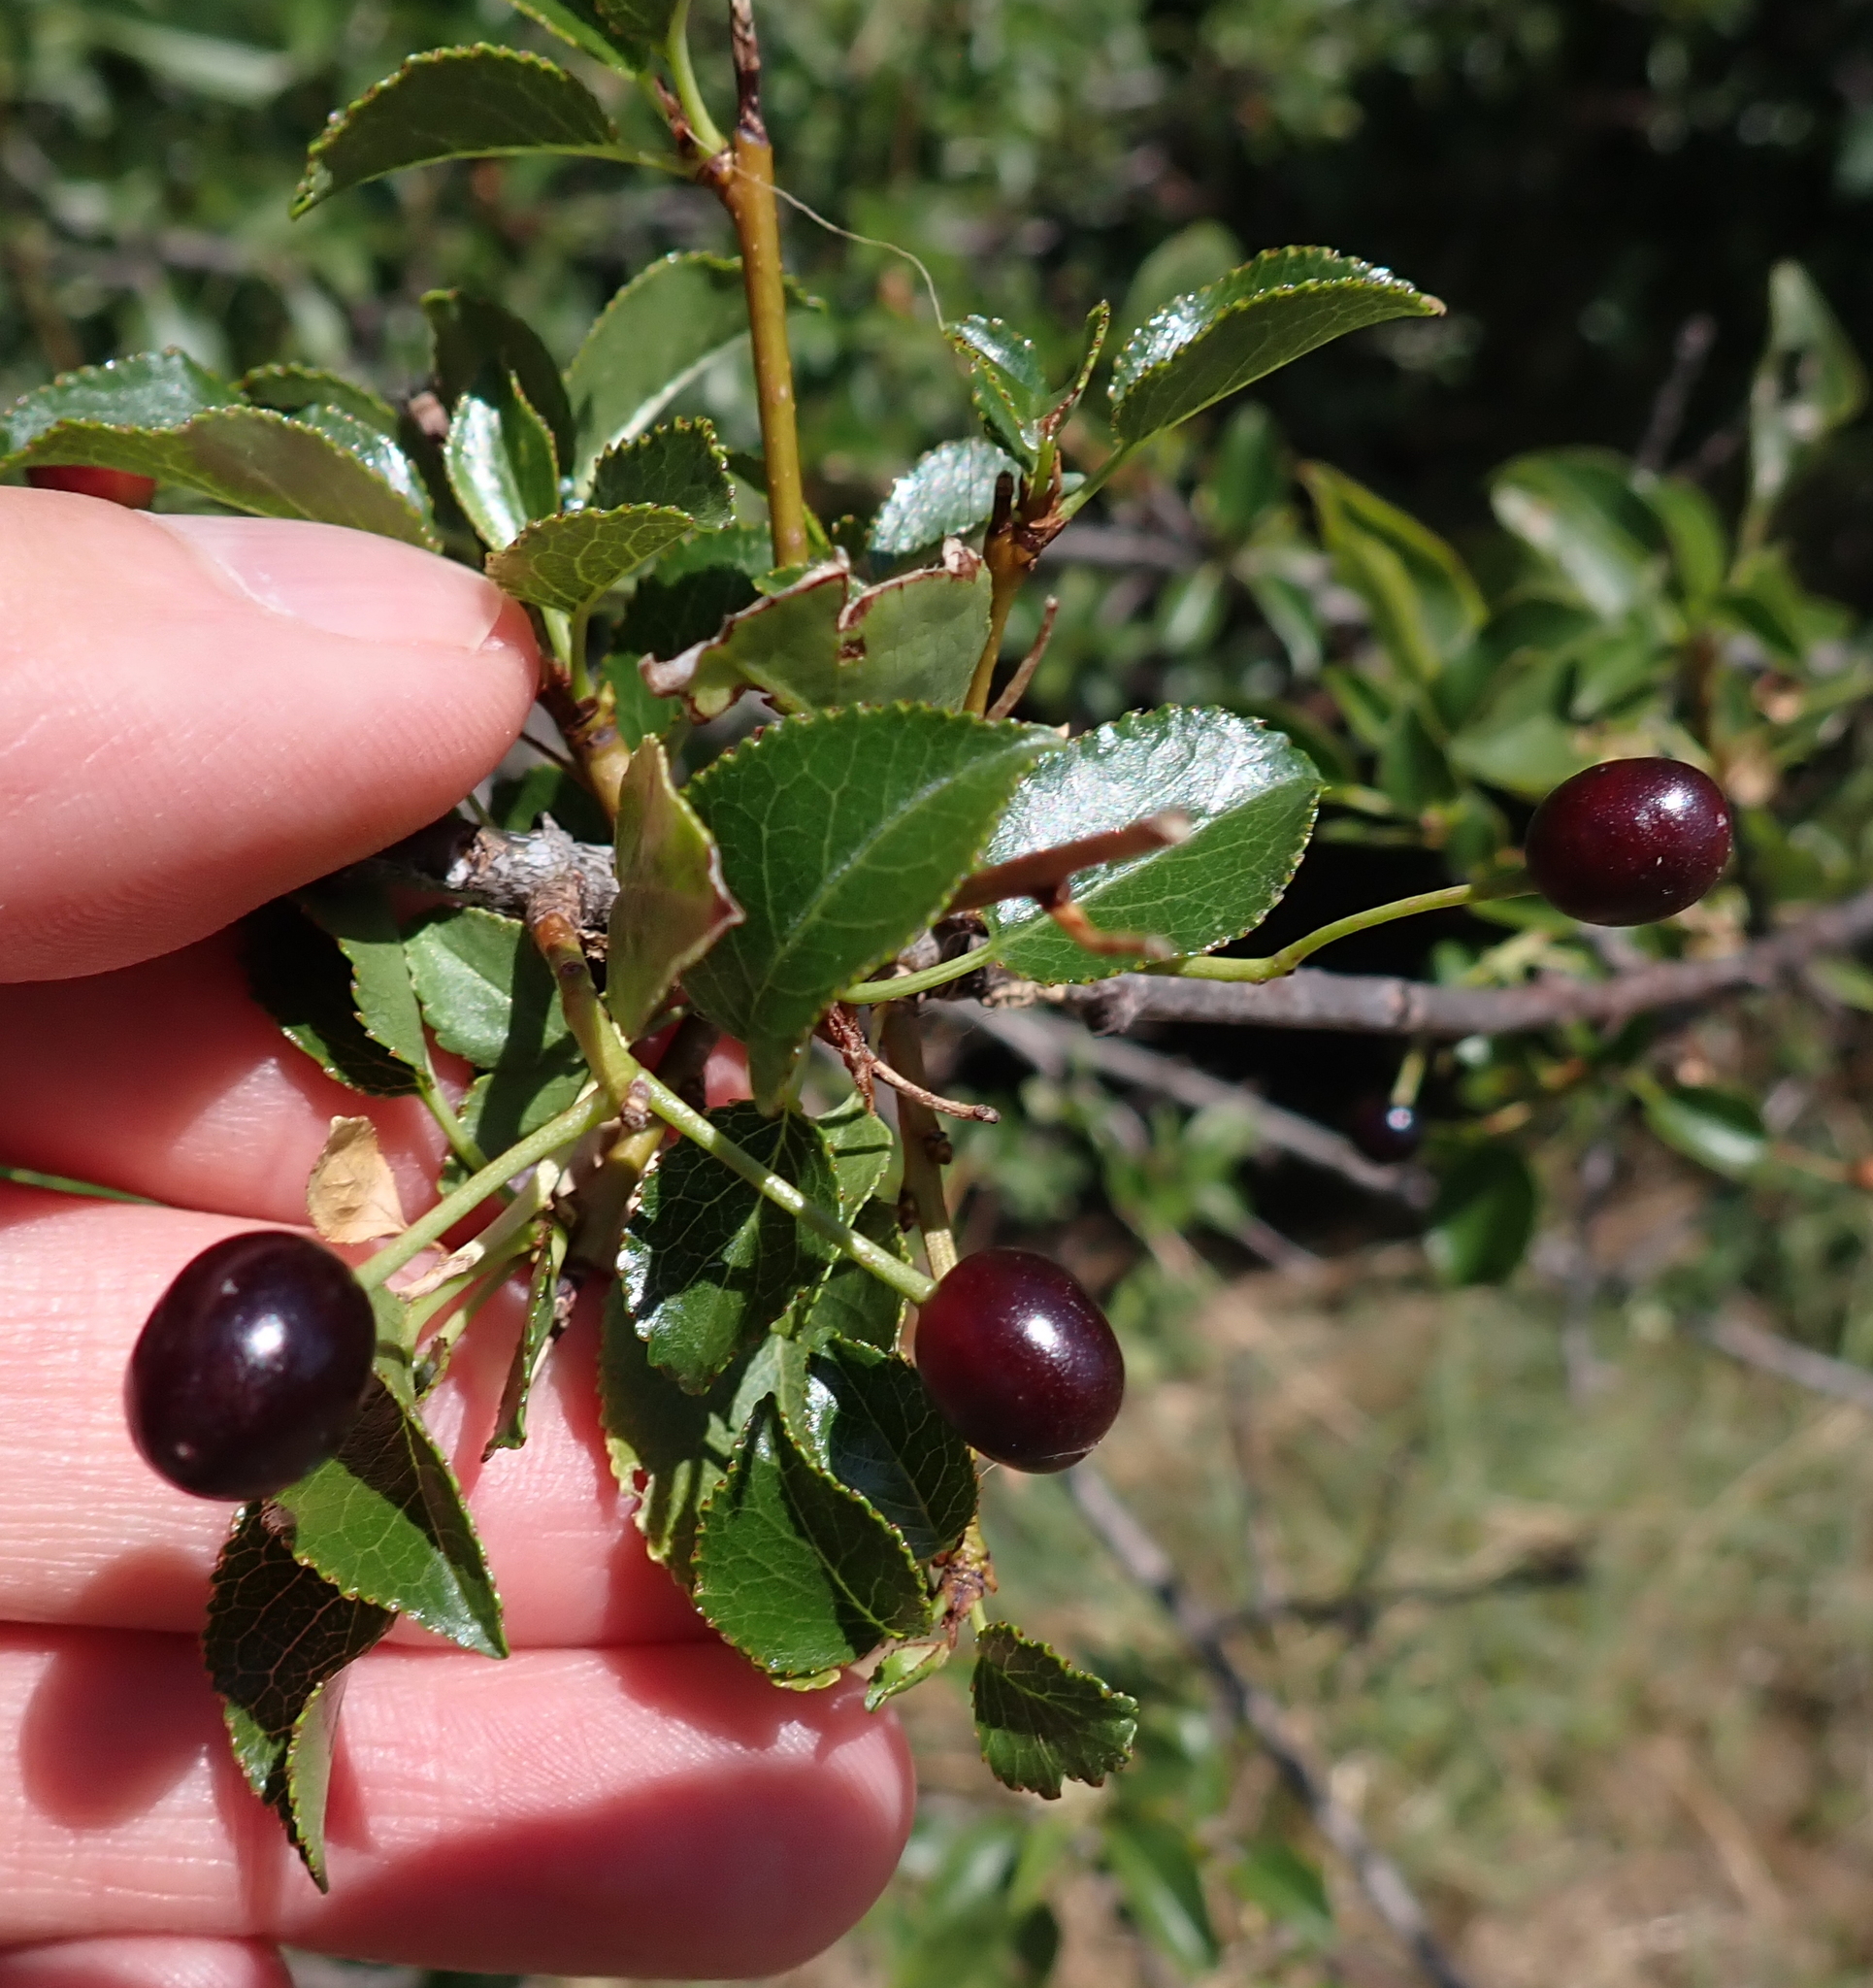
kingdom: Plantae
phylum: Tracheophyta
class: Magnoliopsida
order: Rosales
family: Rosaceae
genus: Prunus
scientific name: Prunus fruticosa
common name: European dwarf cherry
